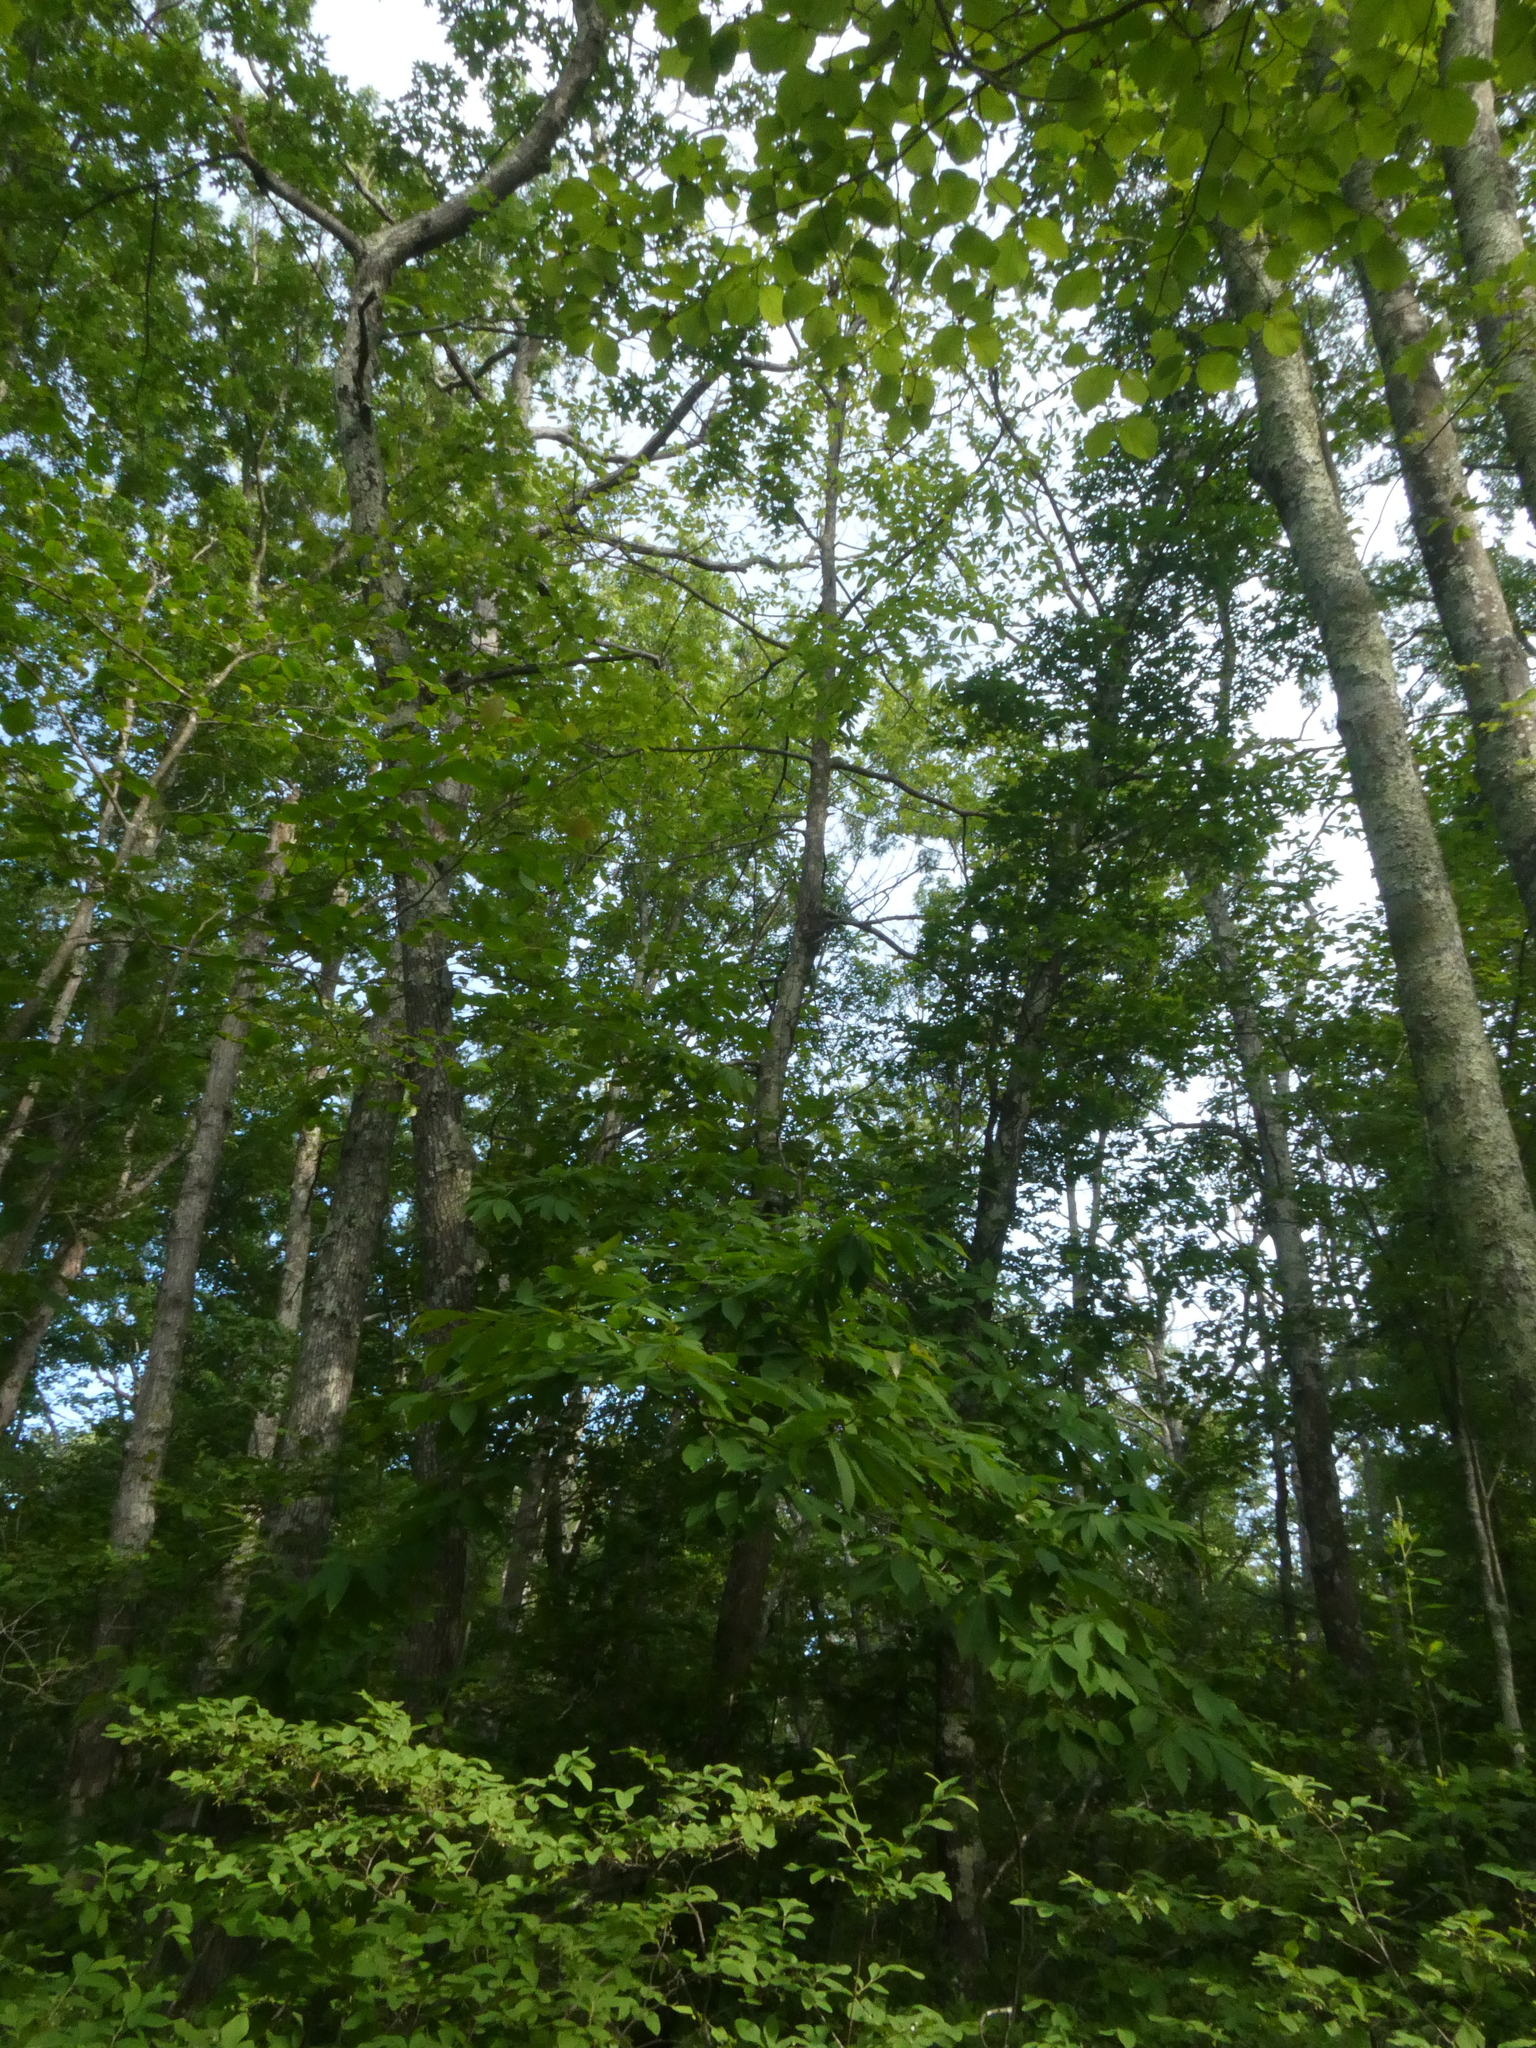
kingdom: Plantae
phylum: Tracheophyta
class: Magnoliopsida
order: Fagales
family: Fagaceae
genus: Castanea
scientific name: Castanea dentata
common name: American chestnut
